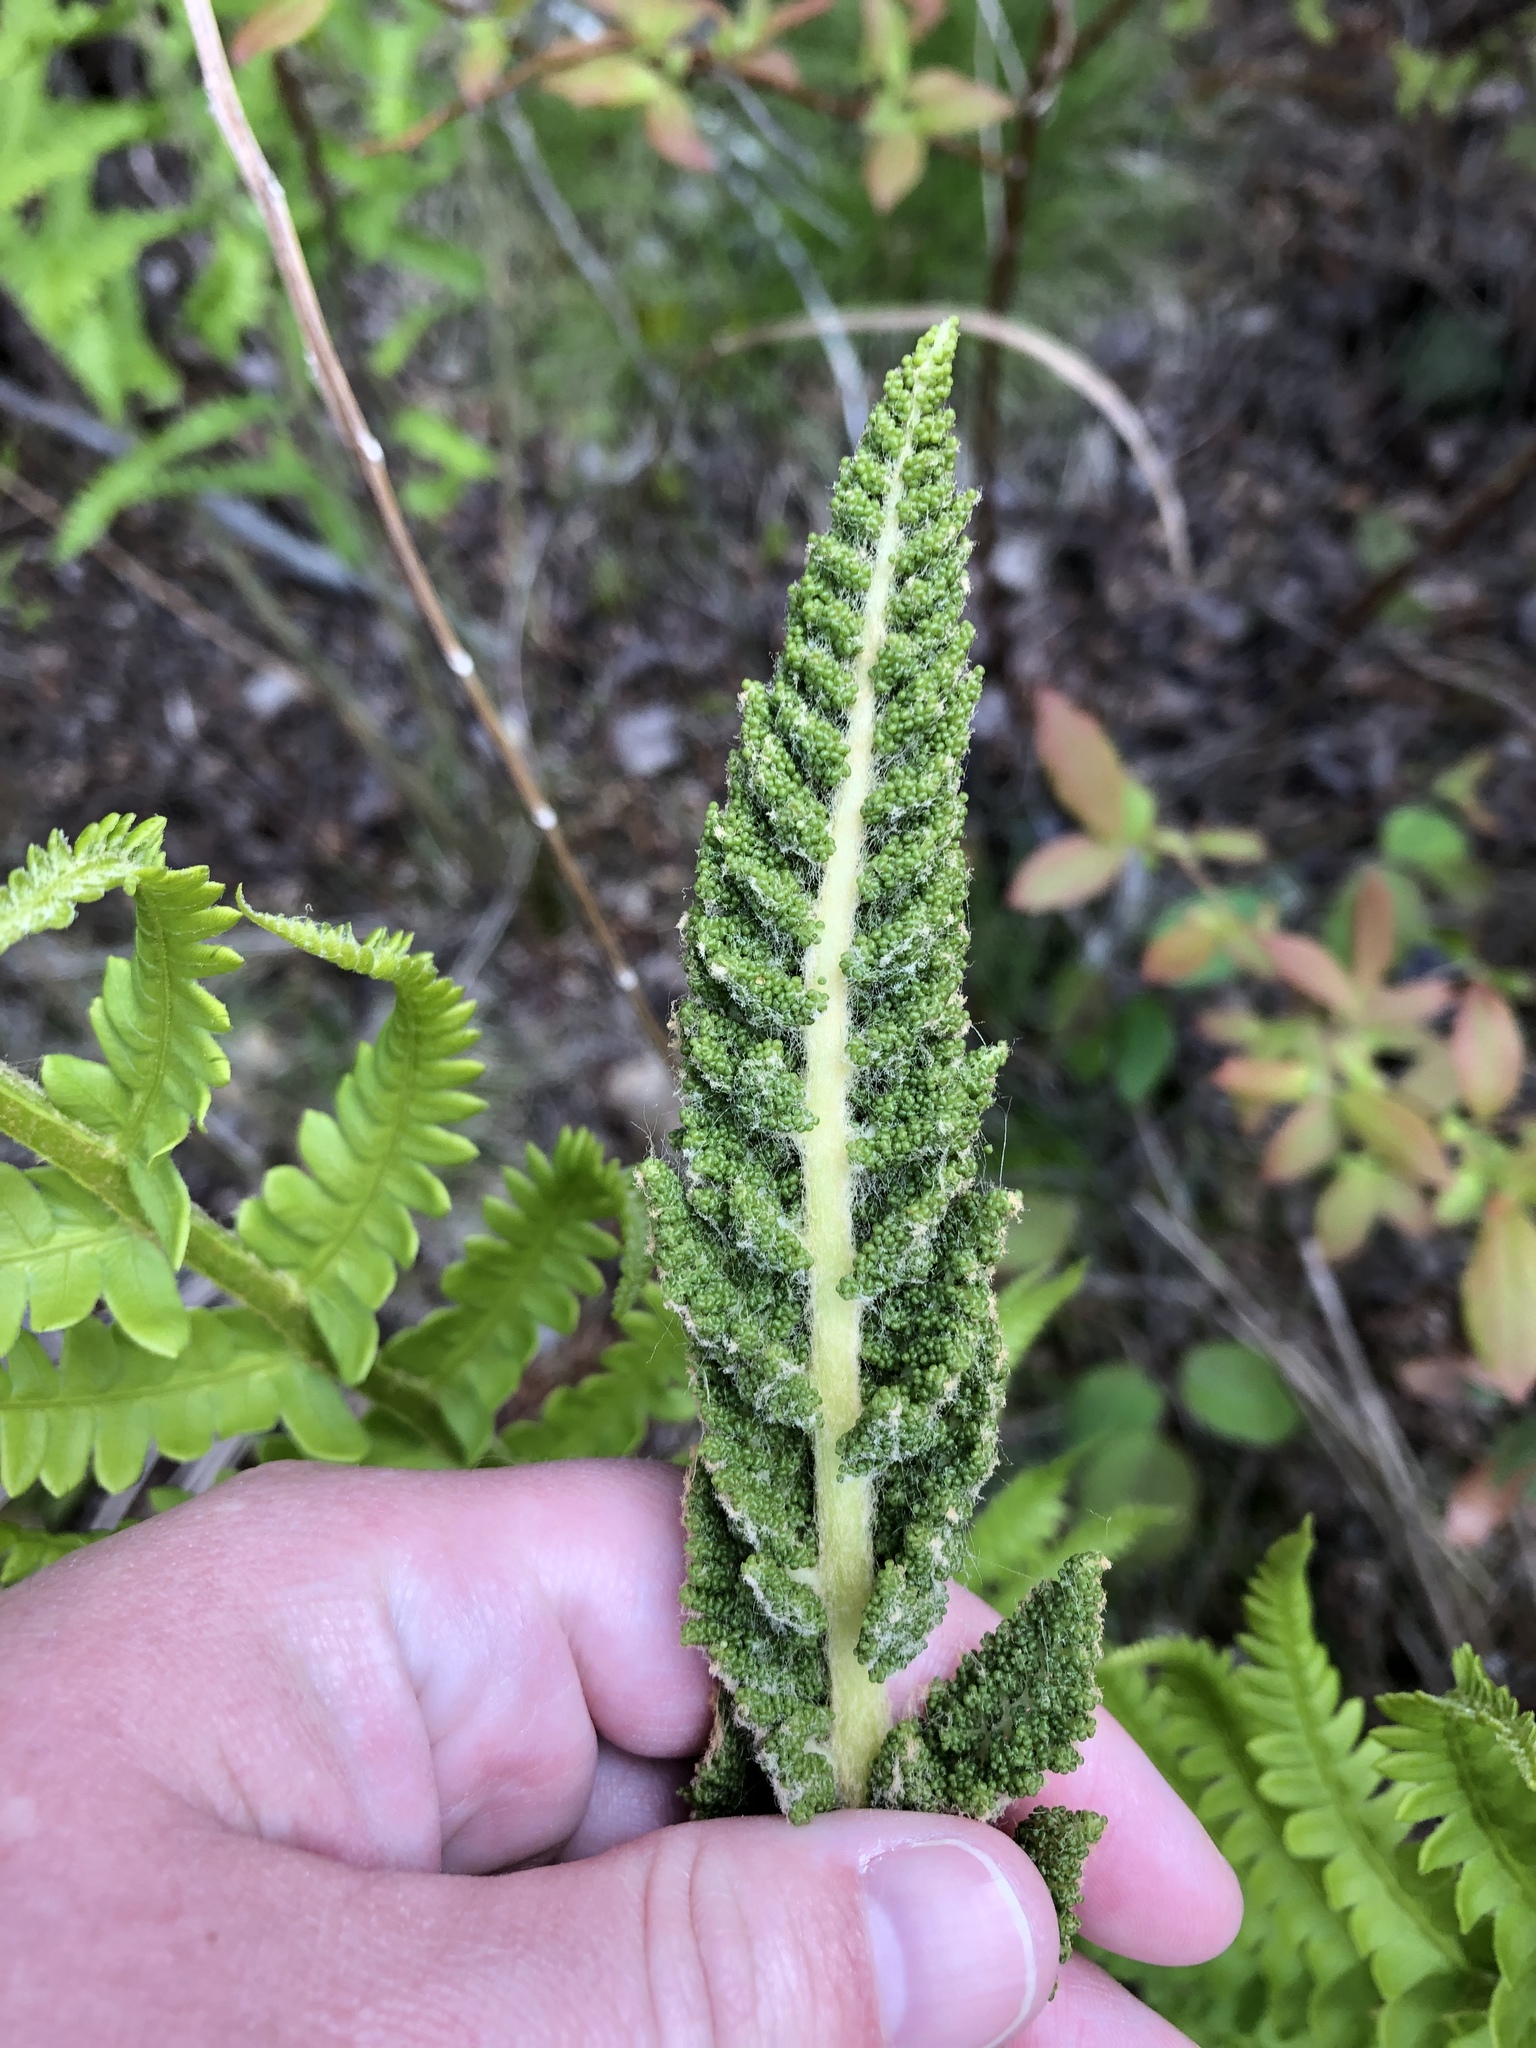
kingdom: Plantae
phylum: Tracheophyta
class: Polypodiopsida
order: Osmundales
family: Osmundaceae
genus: Osmundastrum
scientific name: Osmundastrum cinnamomeum
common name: Cinnamon fern
